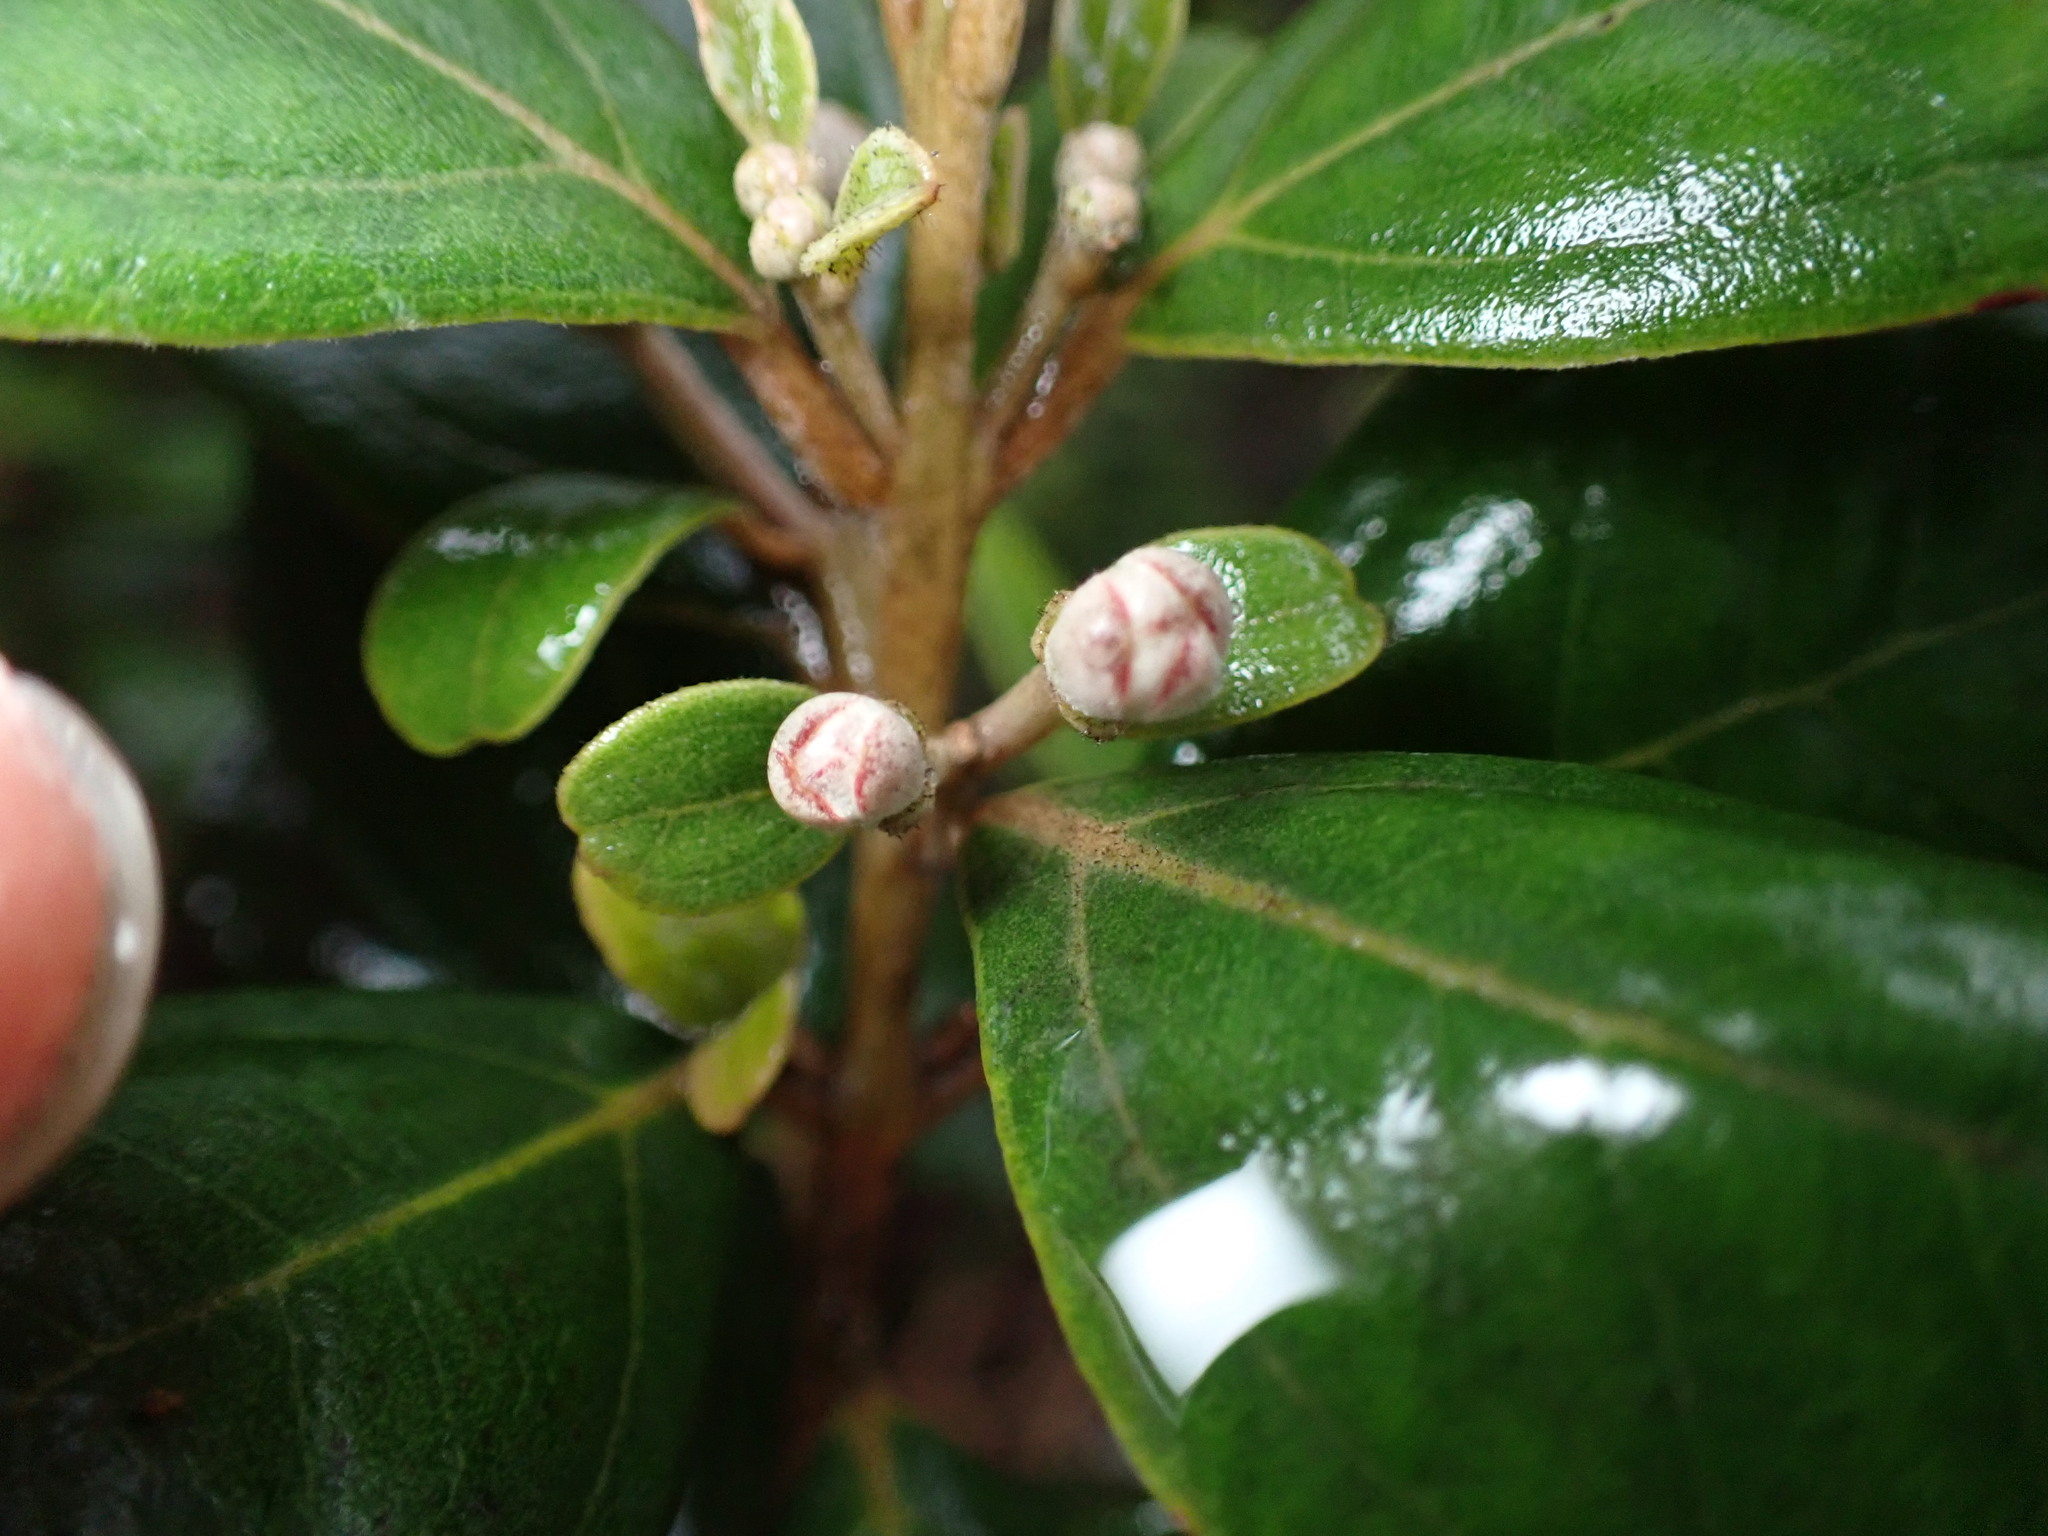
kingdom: Plantae
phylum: Tracheophyta
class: Magnoliopsida
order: Myrtales
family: Myrtaceae
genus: Rhodomyrtus
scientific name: Rhodomyrtus tomentosa
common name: Rose myrtle
